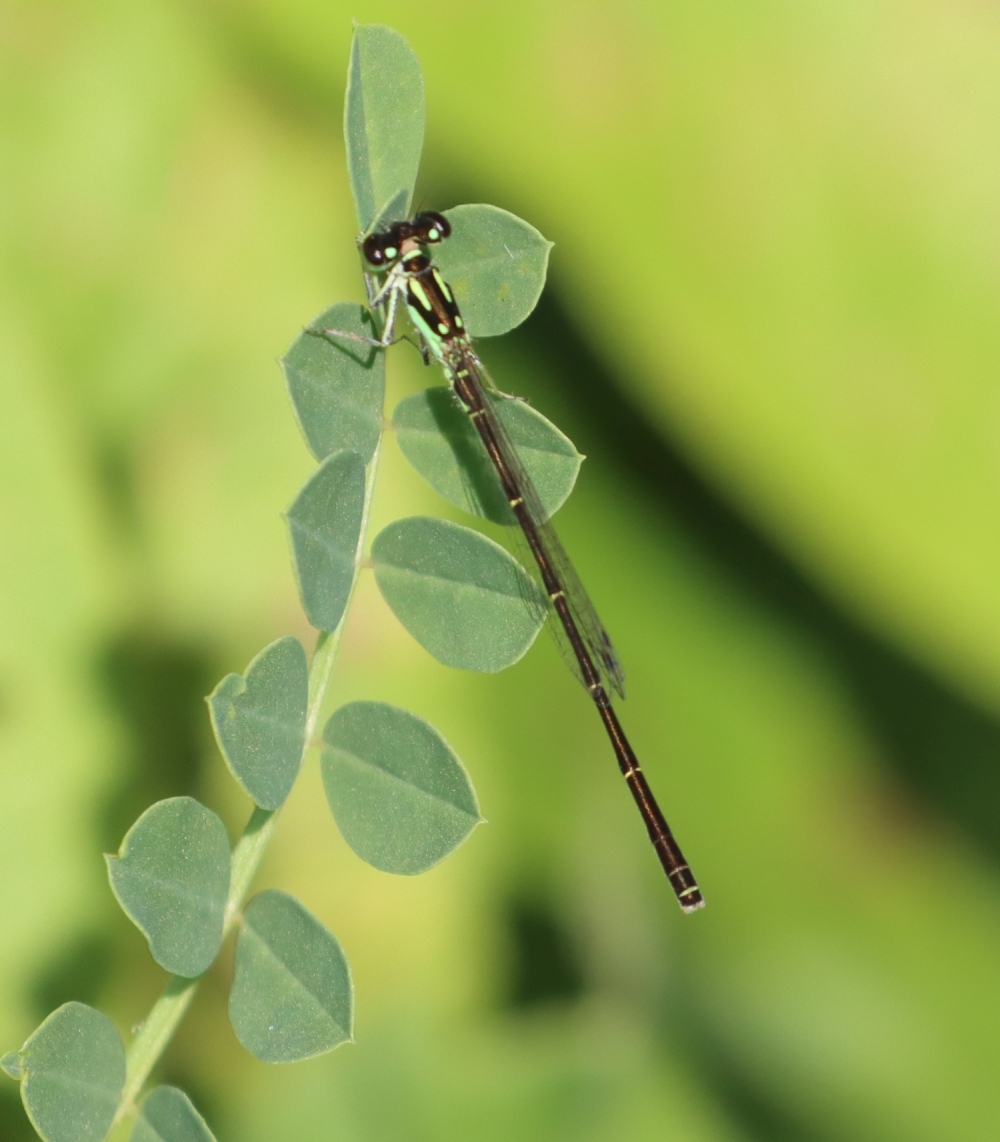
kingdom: Animalia
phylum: Arthropoda
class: Insecta
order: Odonata
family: Coenagrionidae
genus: Ischnura
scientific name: Ischnura posita
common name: Fragile forktail
